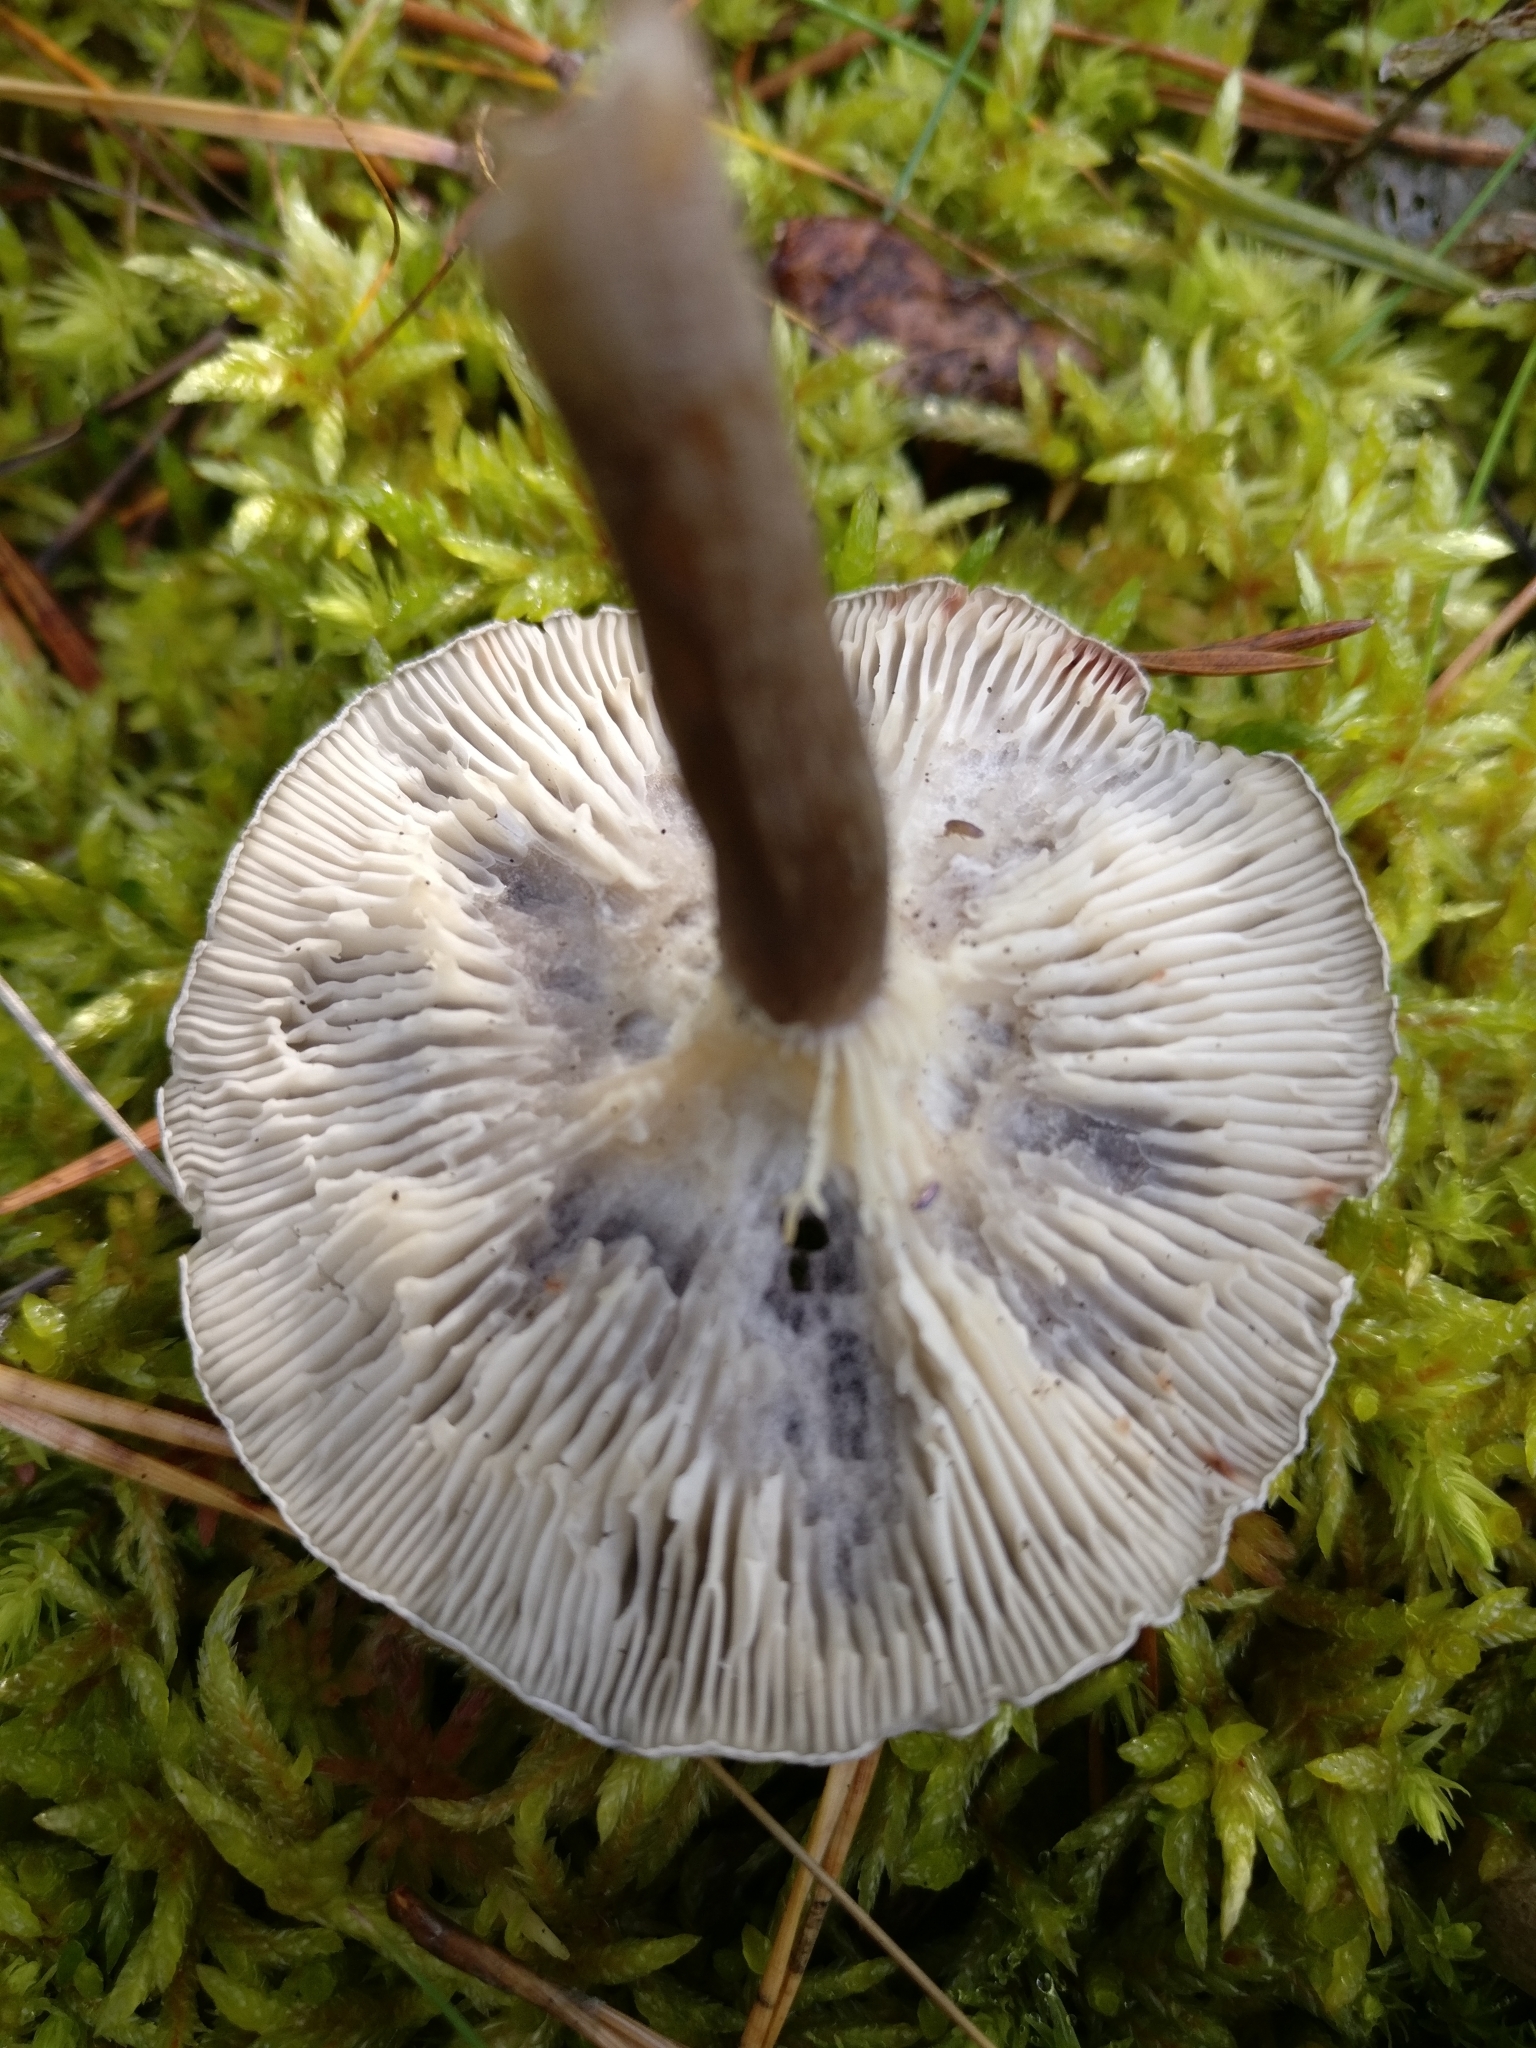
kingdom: Fungi
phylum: Basidiomycota
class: Agaricomycetes
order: Agaricales
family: Hygrophoraceae
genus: Cantharellula
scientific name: Cantharellula umbonata
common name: The humpback
